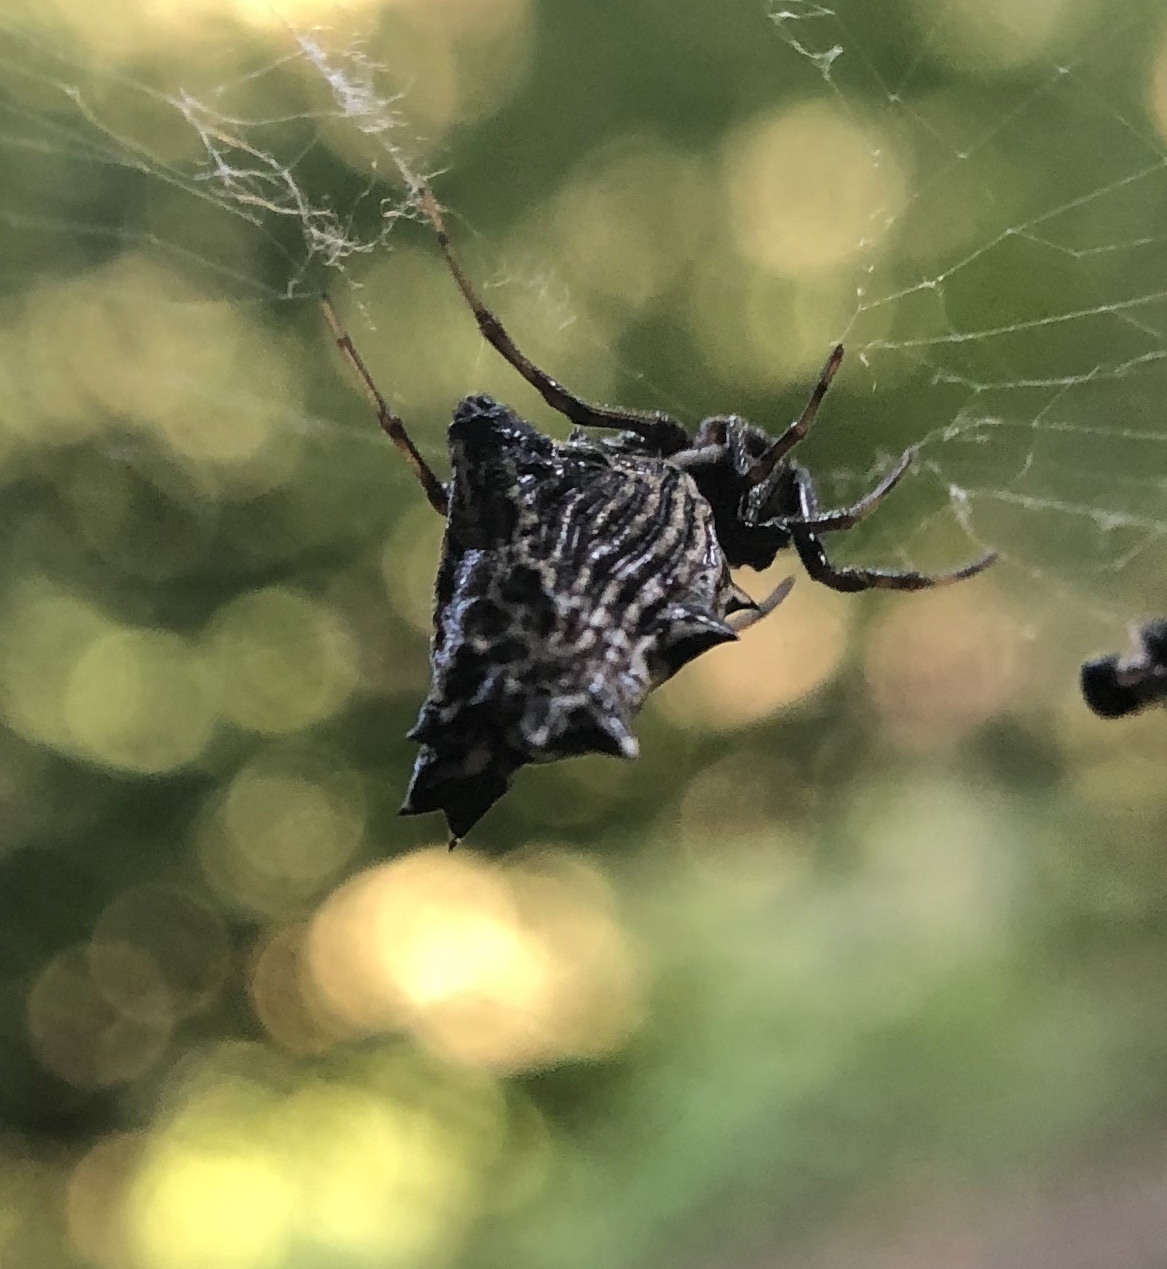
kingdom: Animalia
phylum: Arthropoda
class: Arachnida
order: Araneae
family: Araneidae
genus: Micrathena
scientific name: Micrathena gracilis
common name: Orb weavers
